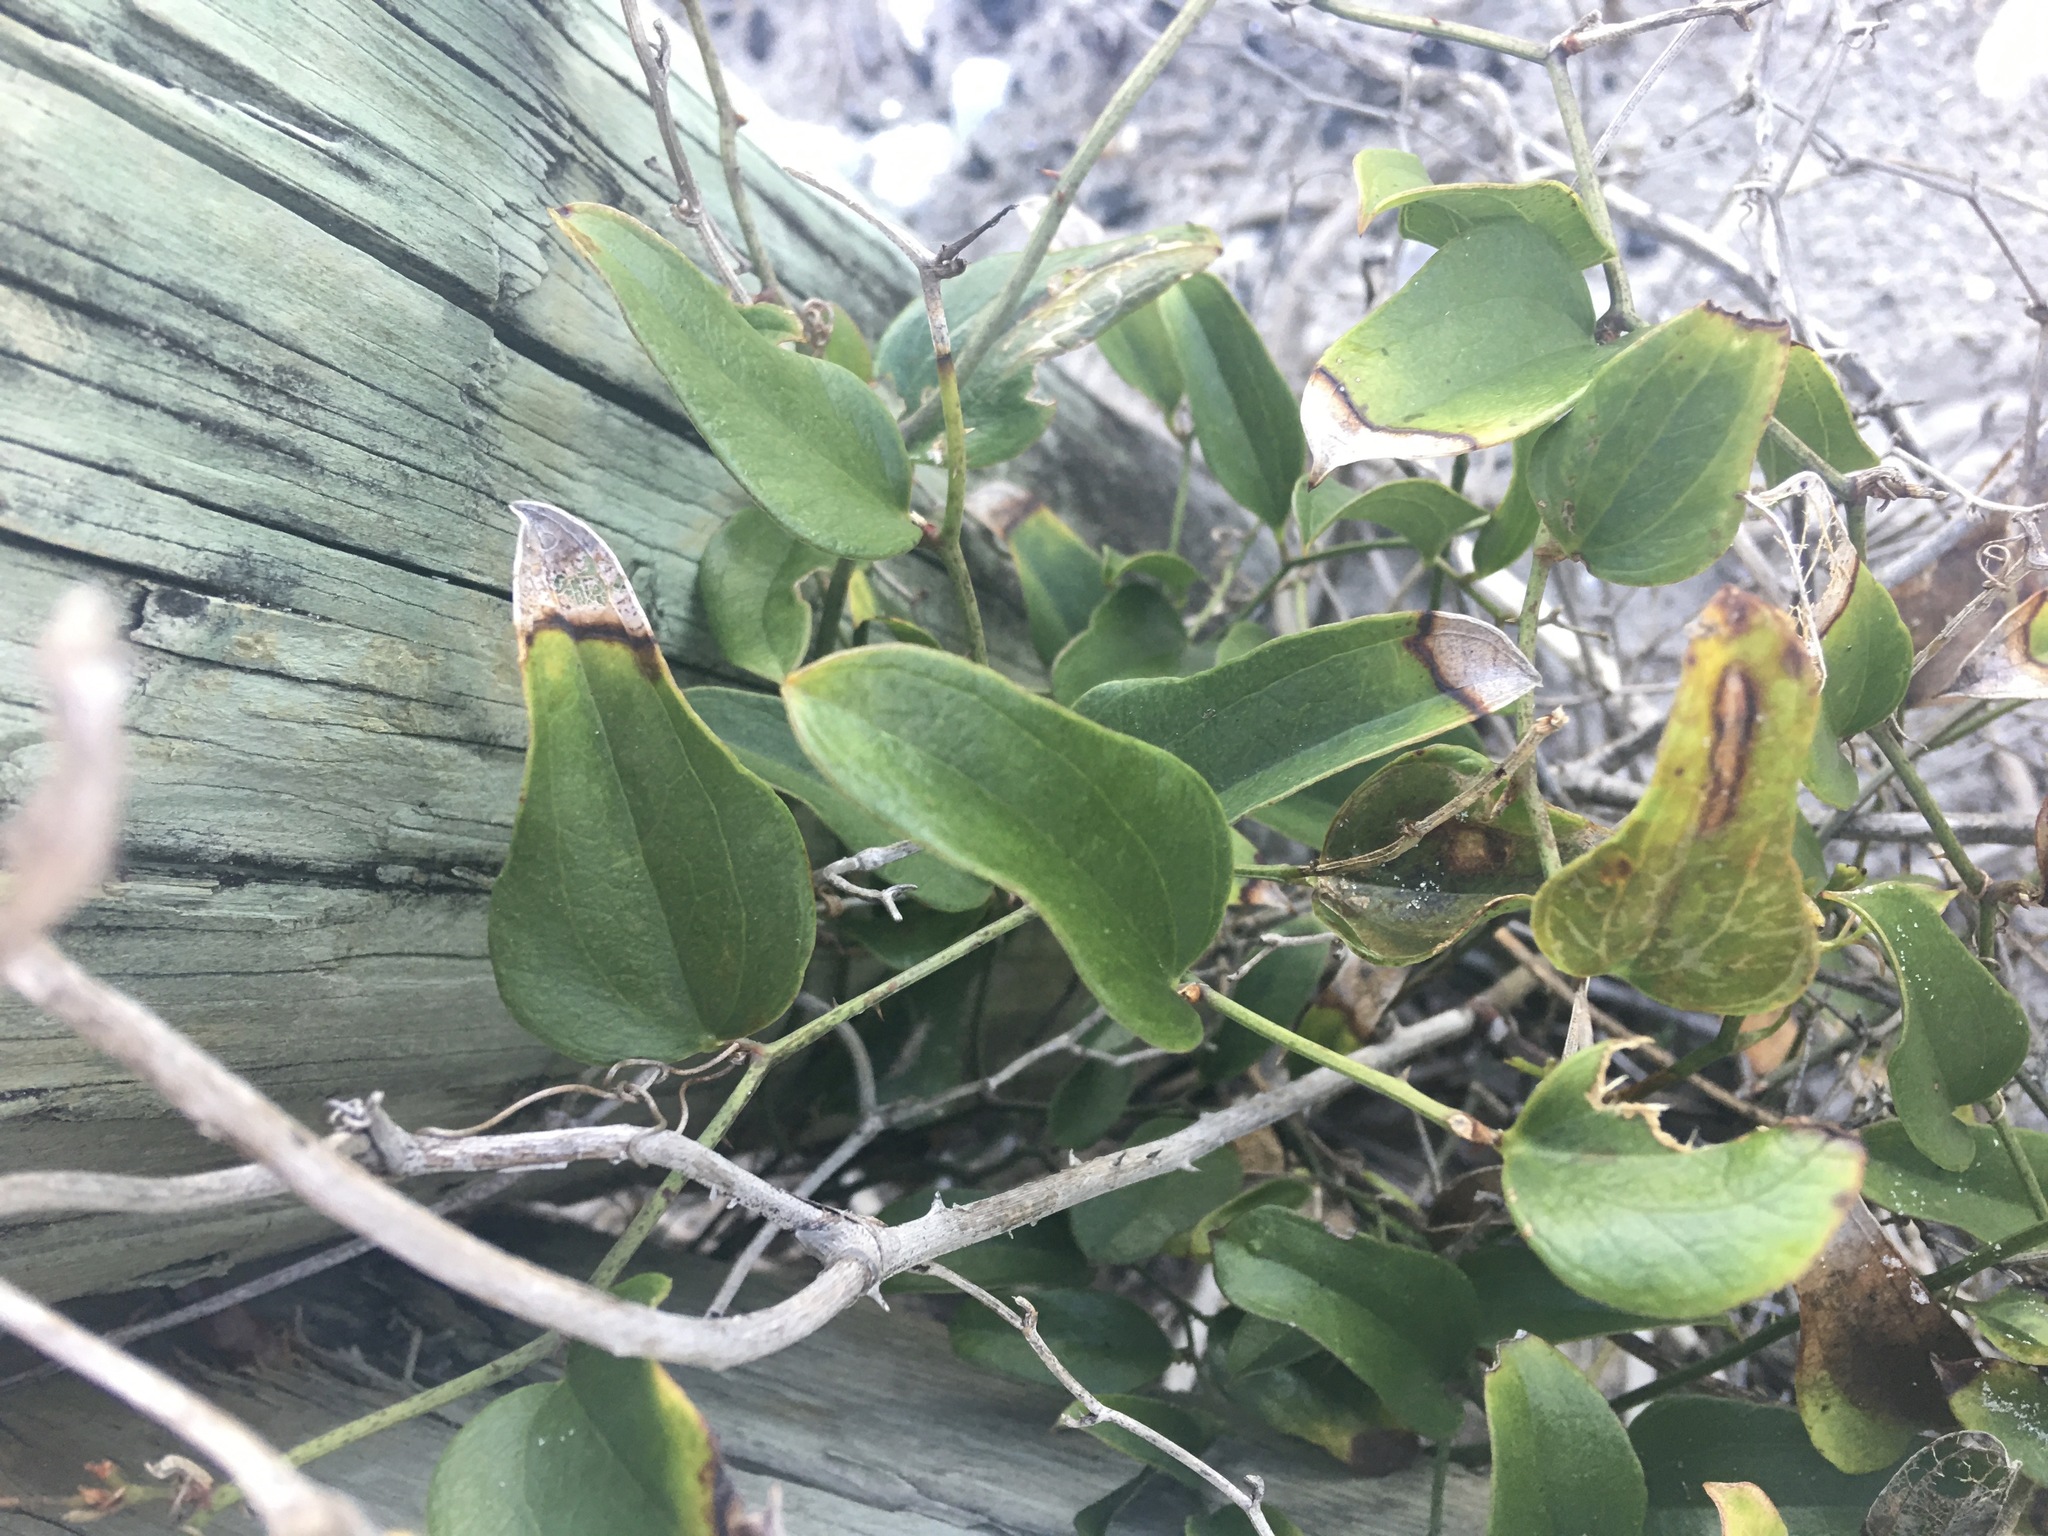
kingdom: Plantae
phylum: Tracheophyta
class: Liliopsida
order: Liliales
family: Smilacaceae
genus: Smilax
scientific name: Smilax auriculata
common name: Wild bamboo
